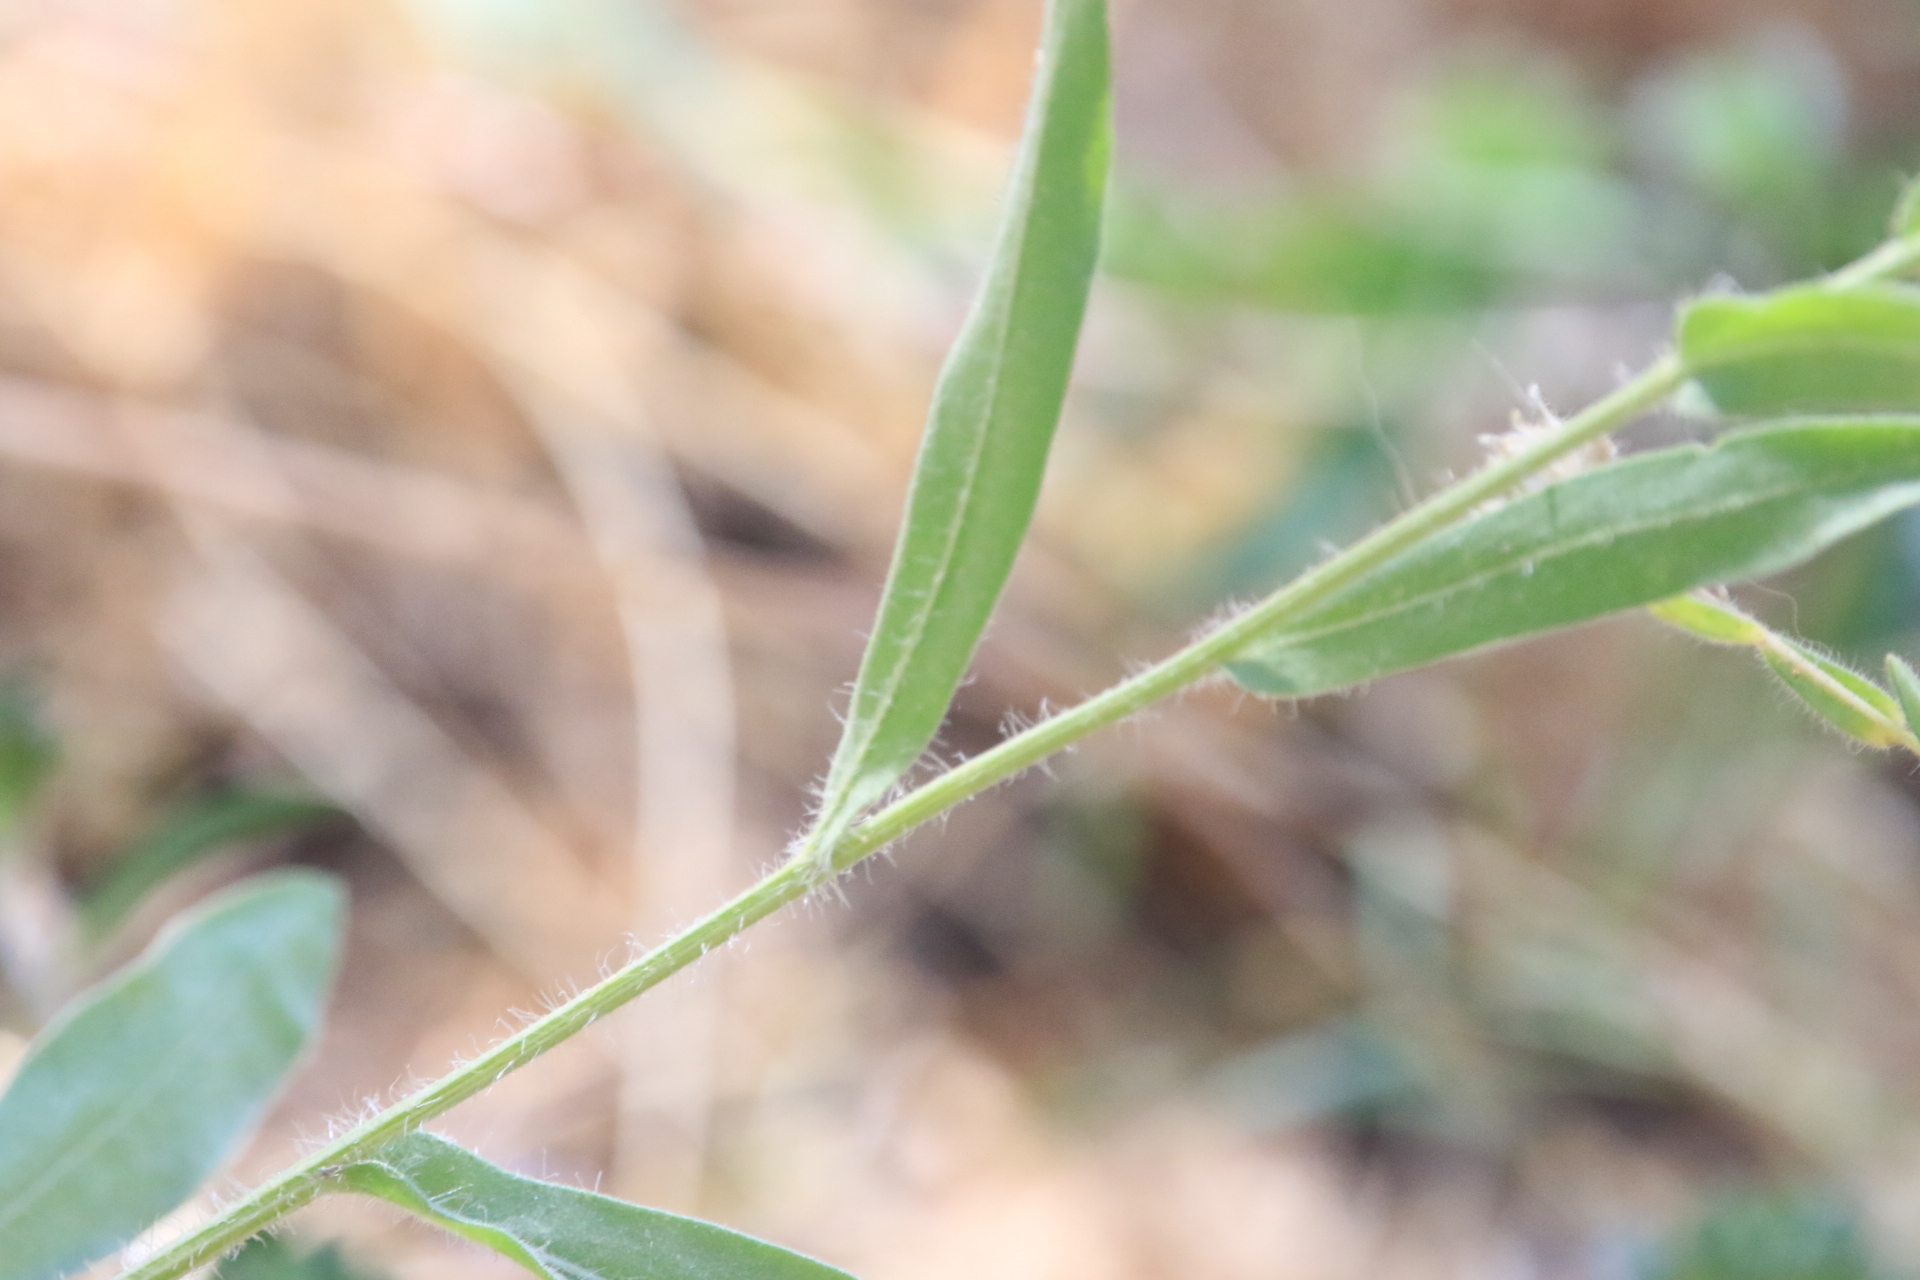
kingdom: Plantae
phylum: Tracheophyta
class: Magnoliopsida
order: Asterales
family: Asteraceae
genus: Gaillardia
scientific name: Gaillardia aristata
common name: Blanket-flower
